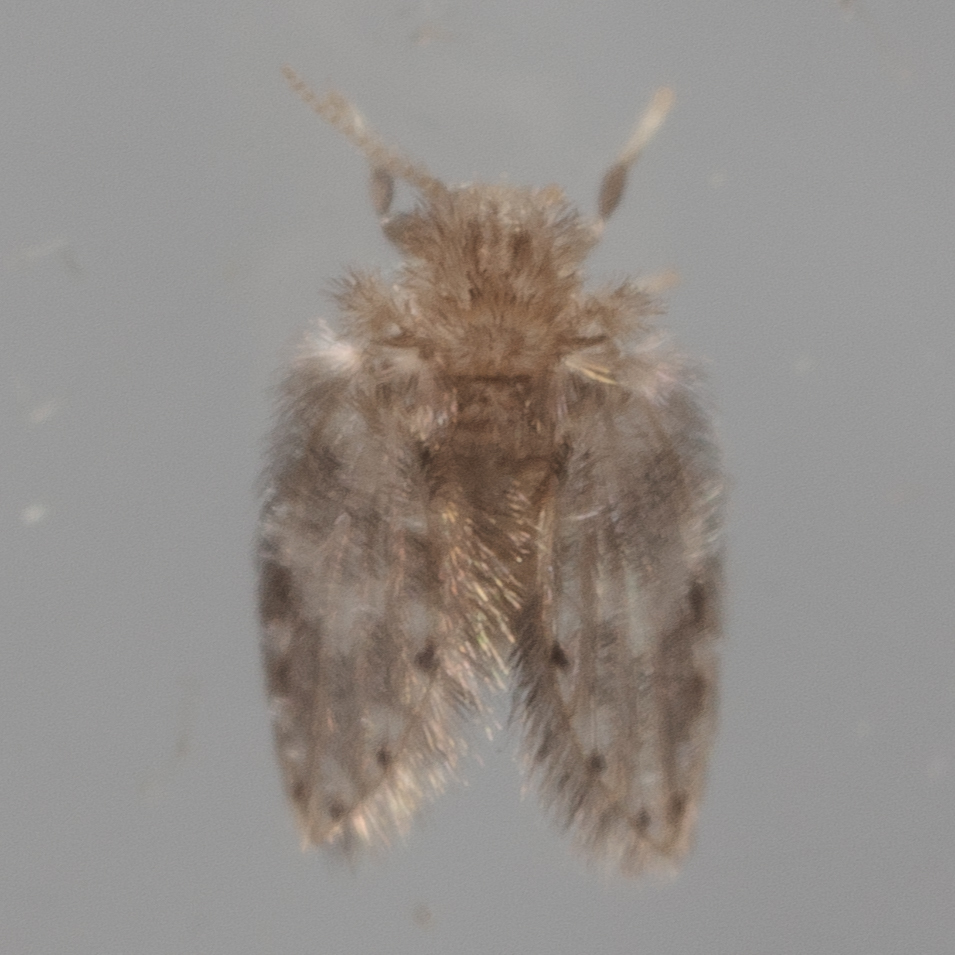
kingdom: Animalia
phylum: Arthropoda
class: Insecta
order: Diptera
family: Psychodidae
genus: Psychoda
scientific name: Psychoda alternata
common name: Moth fly
